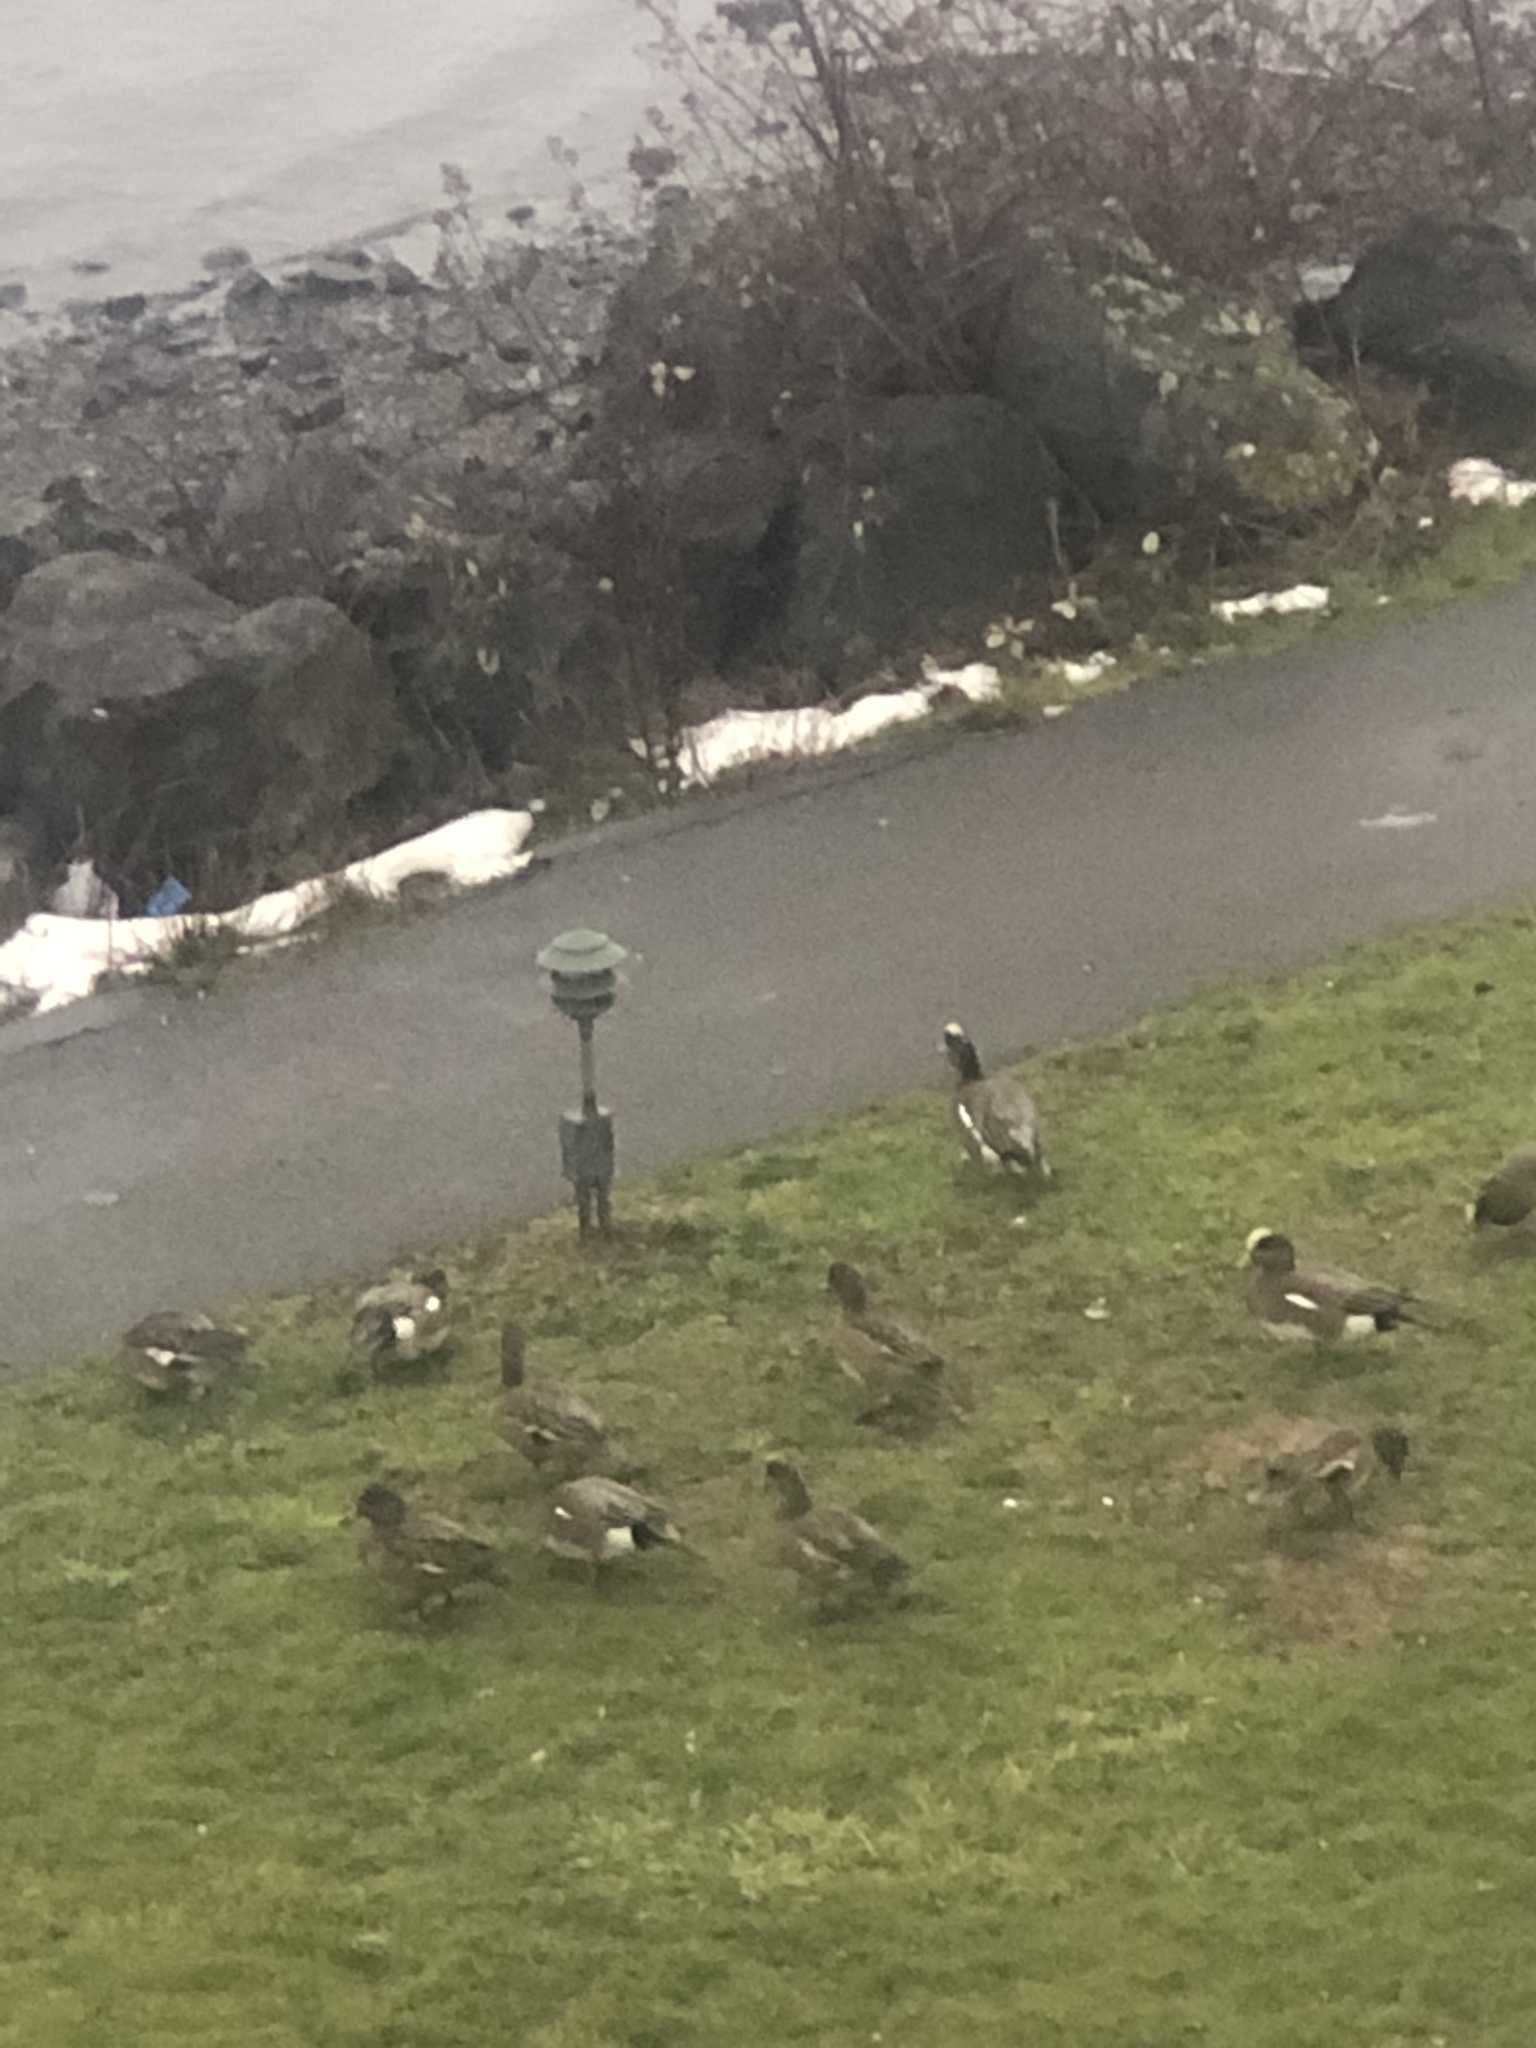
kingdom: Animalia
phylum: Chordata
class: Aves
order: Anseriformes
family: Anatidae
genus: Mareca
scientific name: Mareca americana
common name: American wigeon
